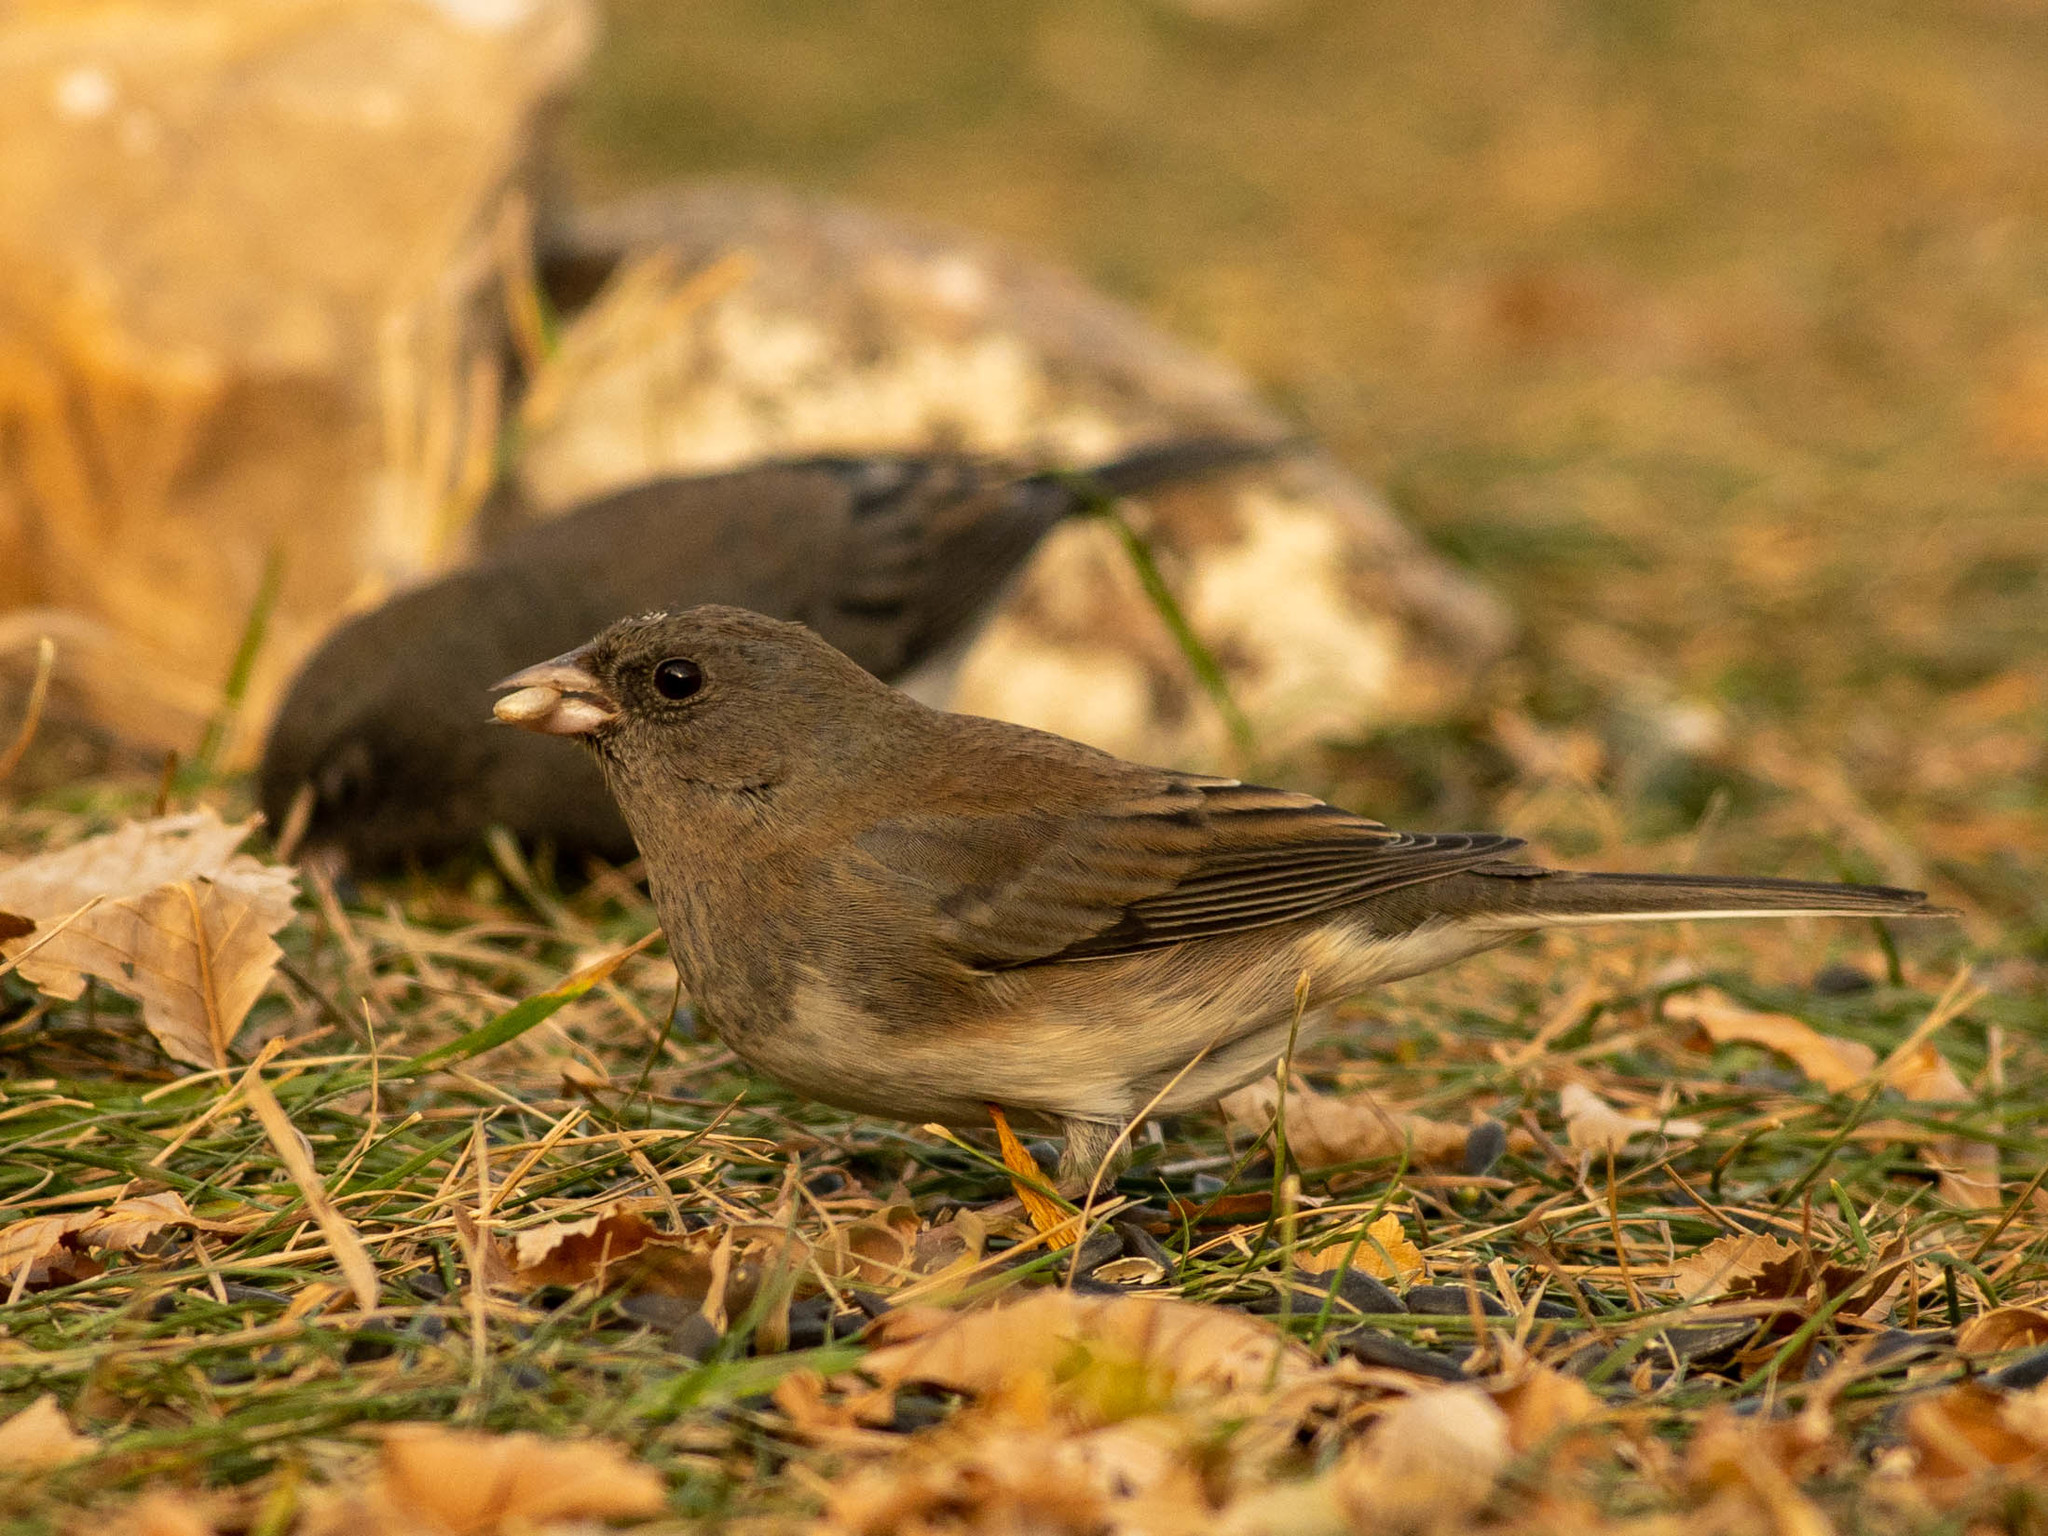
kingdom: Animalia
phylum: Chordata
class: Aves
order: Passeriformes
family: Passerellidae
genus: Junco
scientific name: Junco hyemalis
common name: Dark-eyed junco
